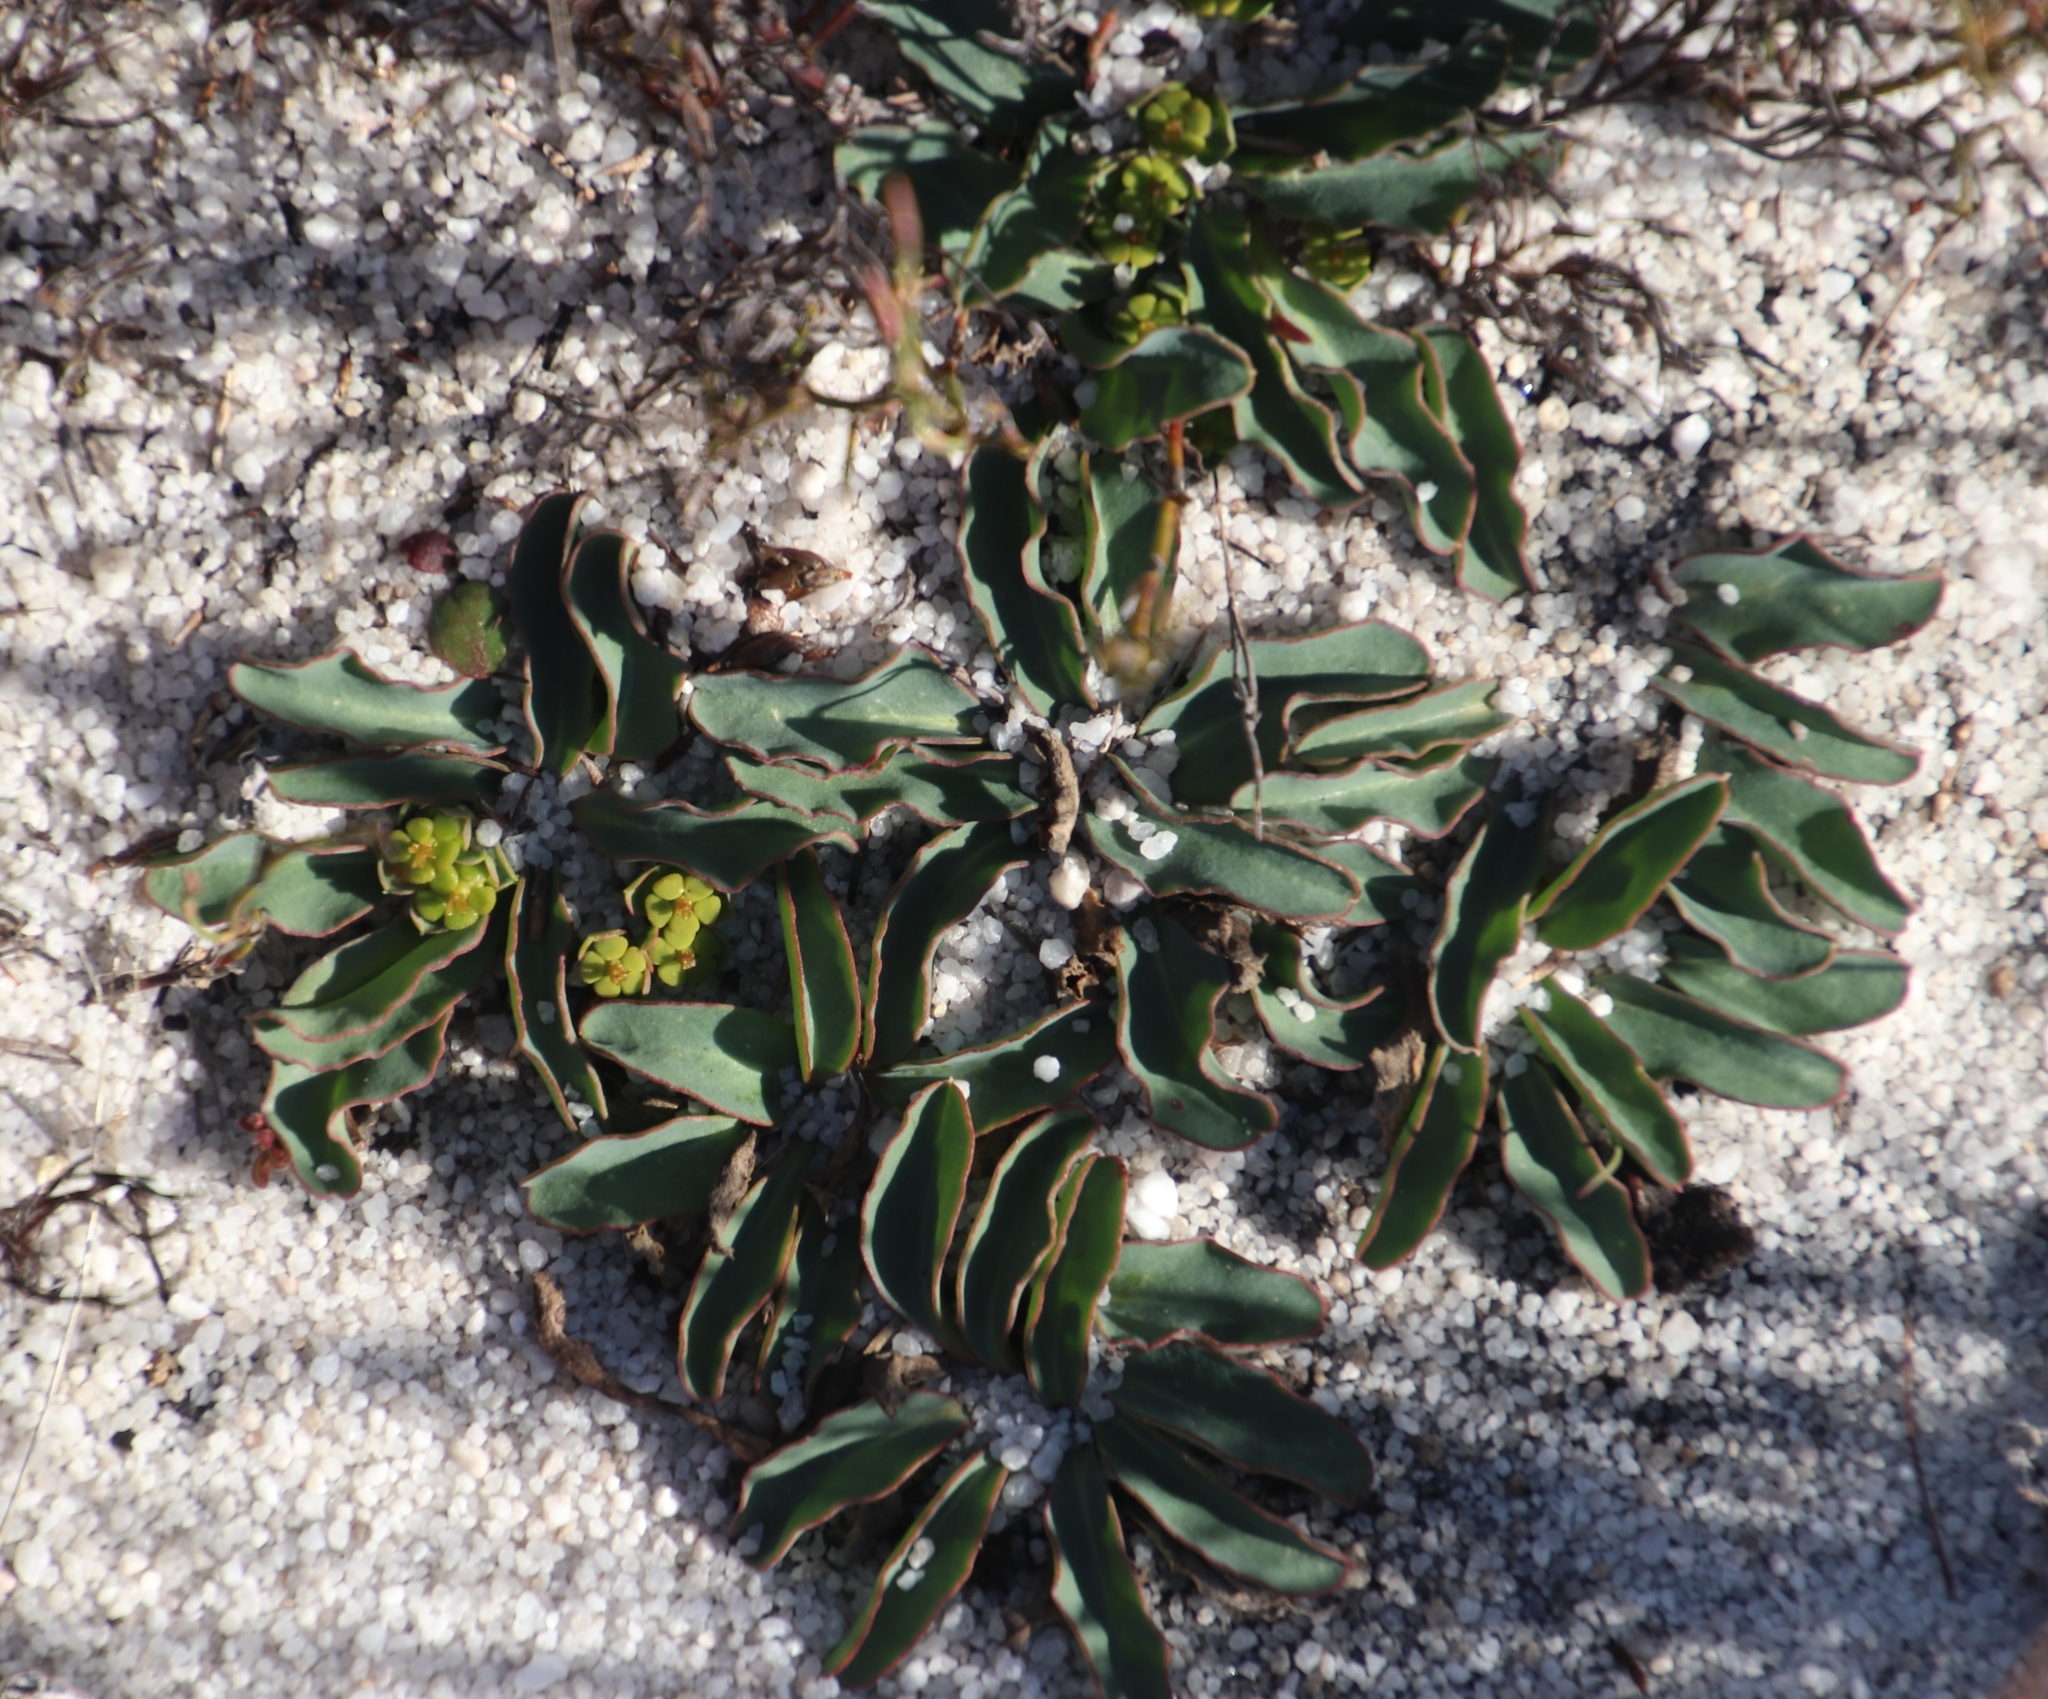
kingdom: Plantae
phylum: Tracheophyta
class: Magnoliopsida
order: Malpighiales
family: Euphorbiaceae
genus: Euphorbia
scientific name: Euphorbia tuberosa
